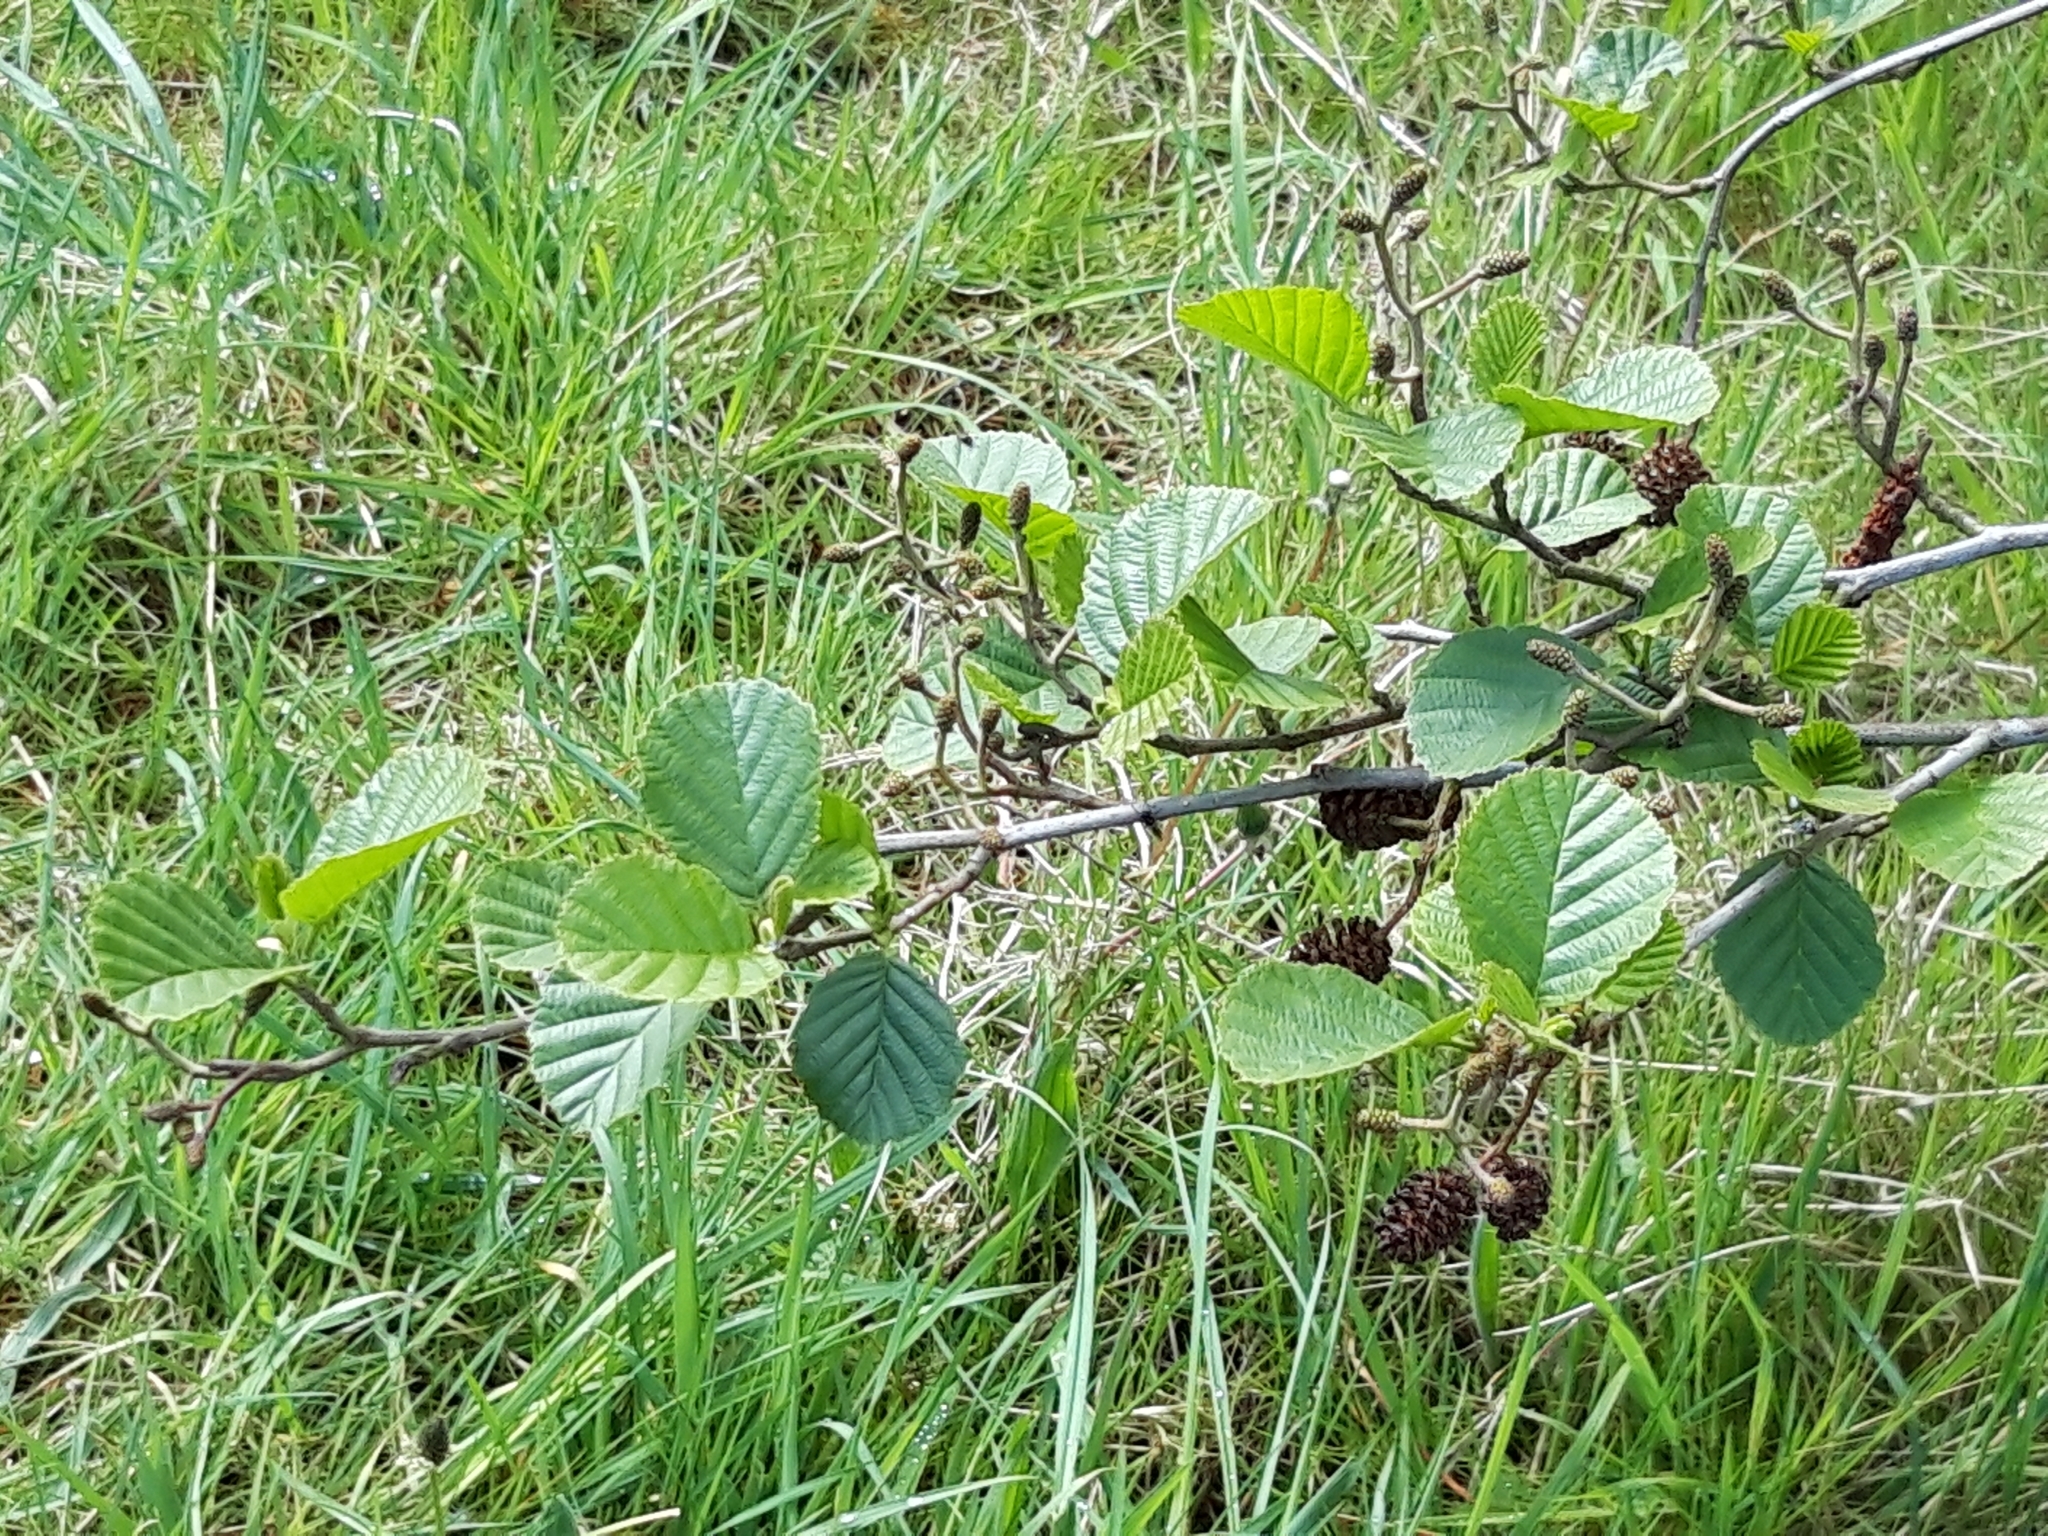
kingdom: Plantae
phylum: Tracheophyta
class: Magnoliopsida
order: Fagales
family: Betulaceae
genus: Alnus
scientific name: Alnus glutinosa
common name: Black alder
